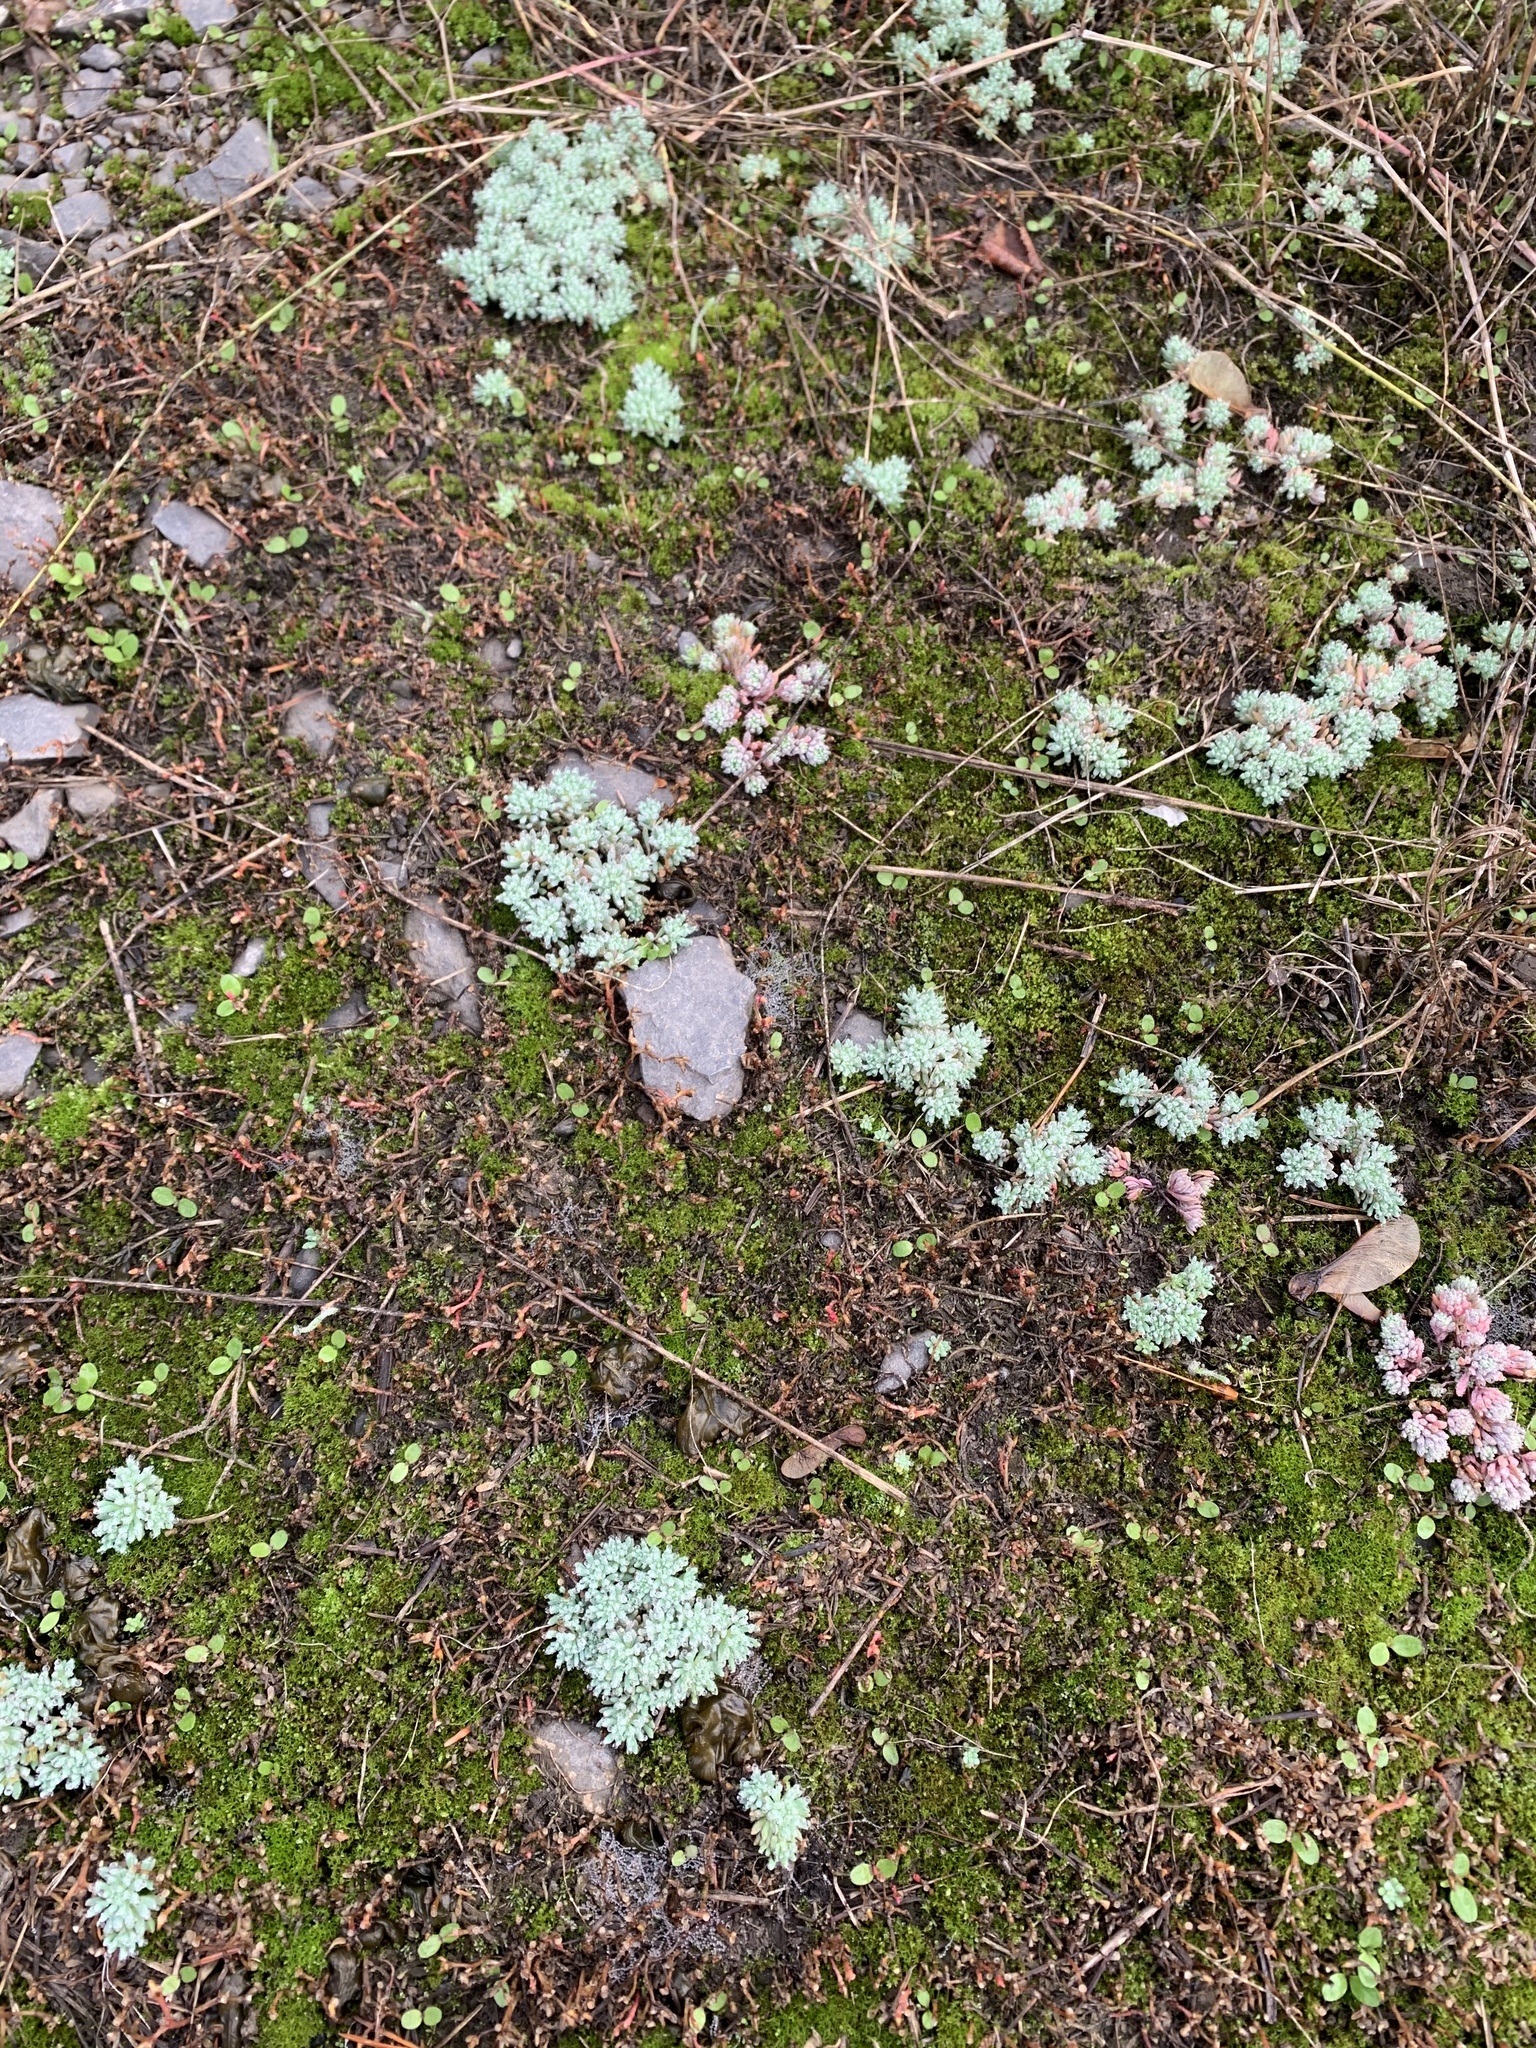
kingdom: Plantae
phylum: Tracheophyta
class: Magnoliopsida
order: Saxifragales
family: Crassulaceae
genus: Sedum
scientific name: Sedum hispanicum
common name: Spanish stonecrop
